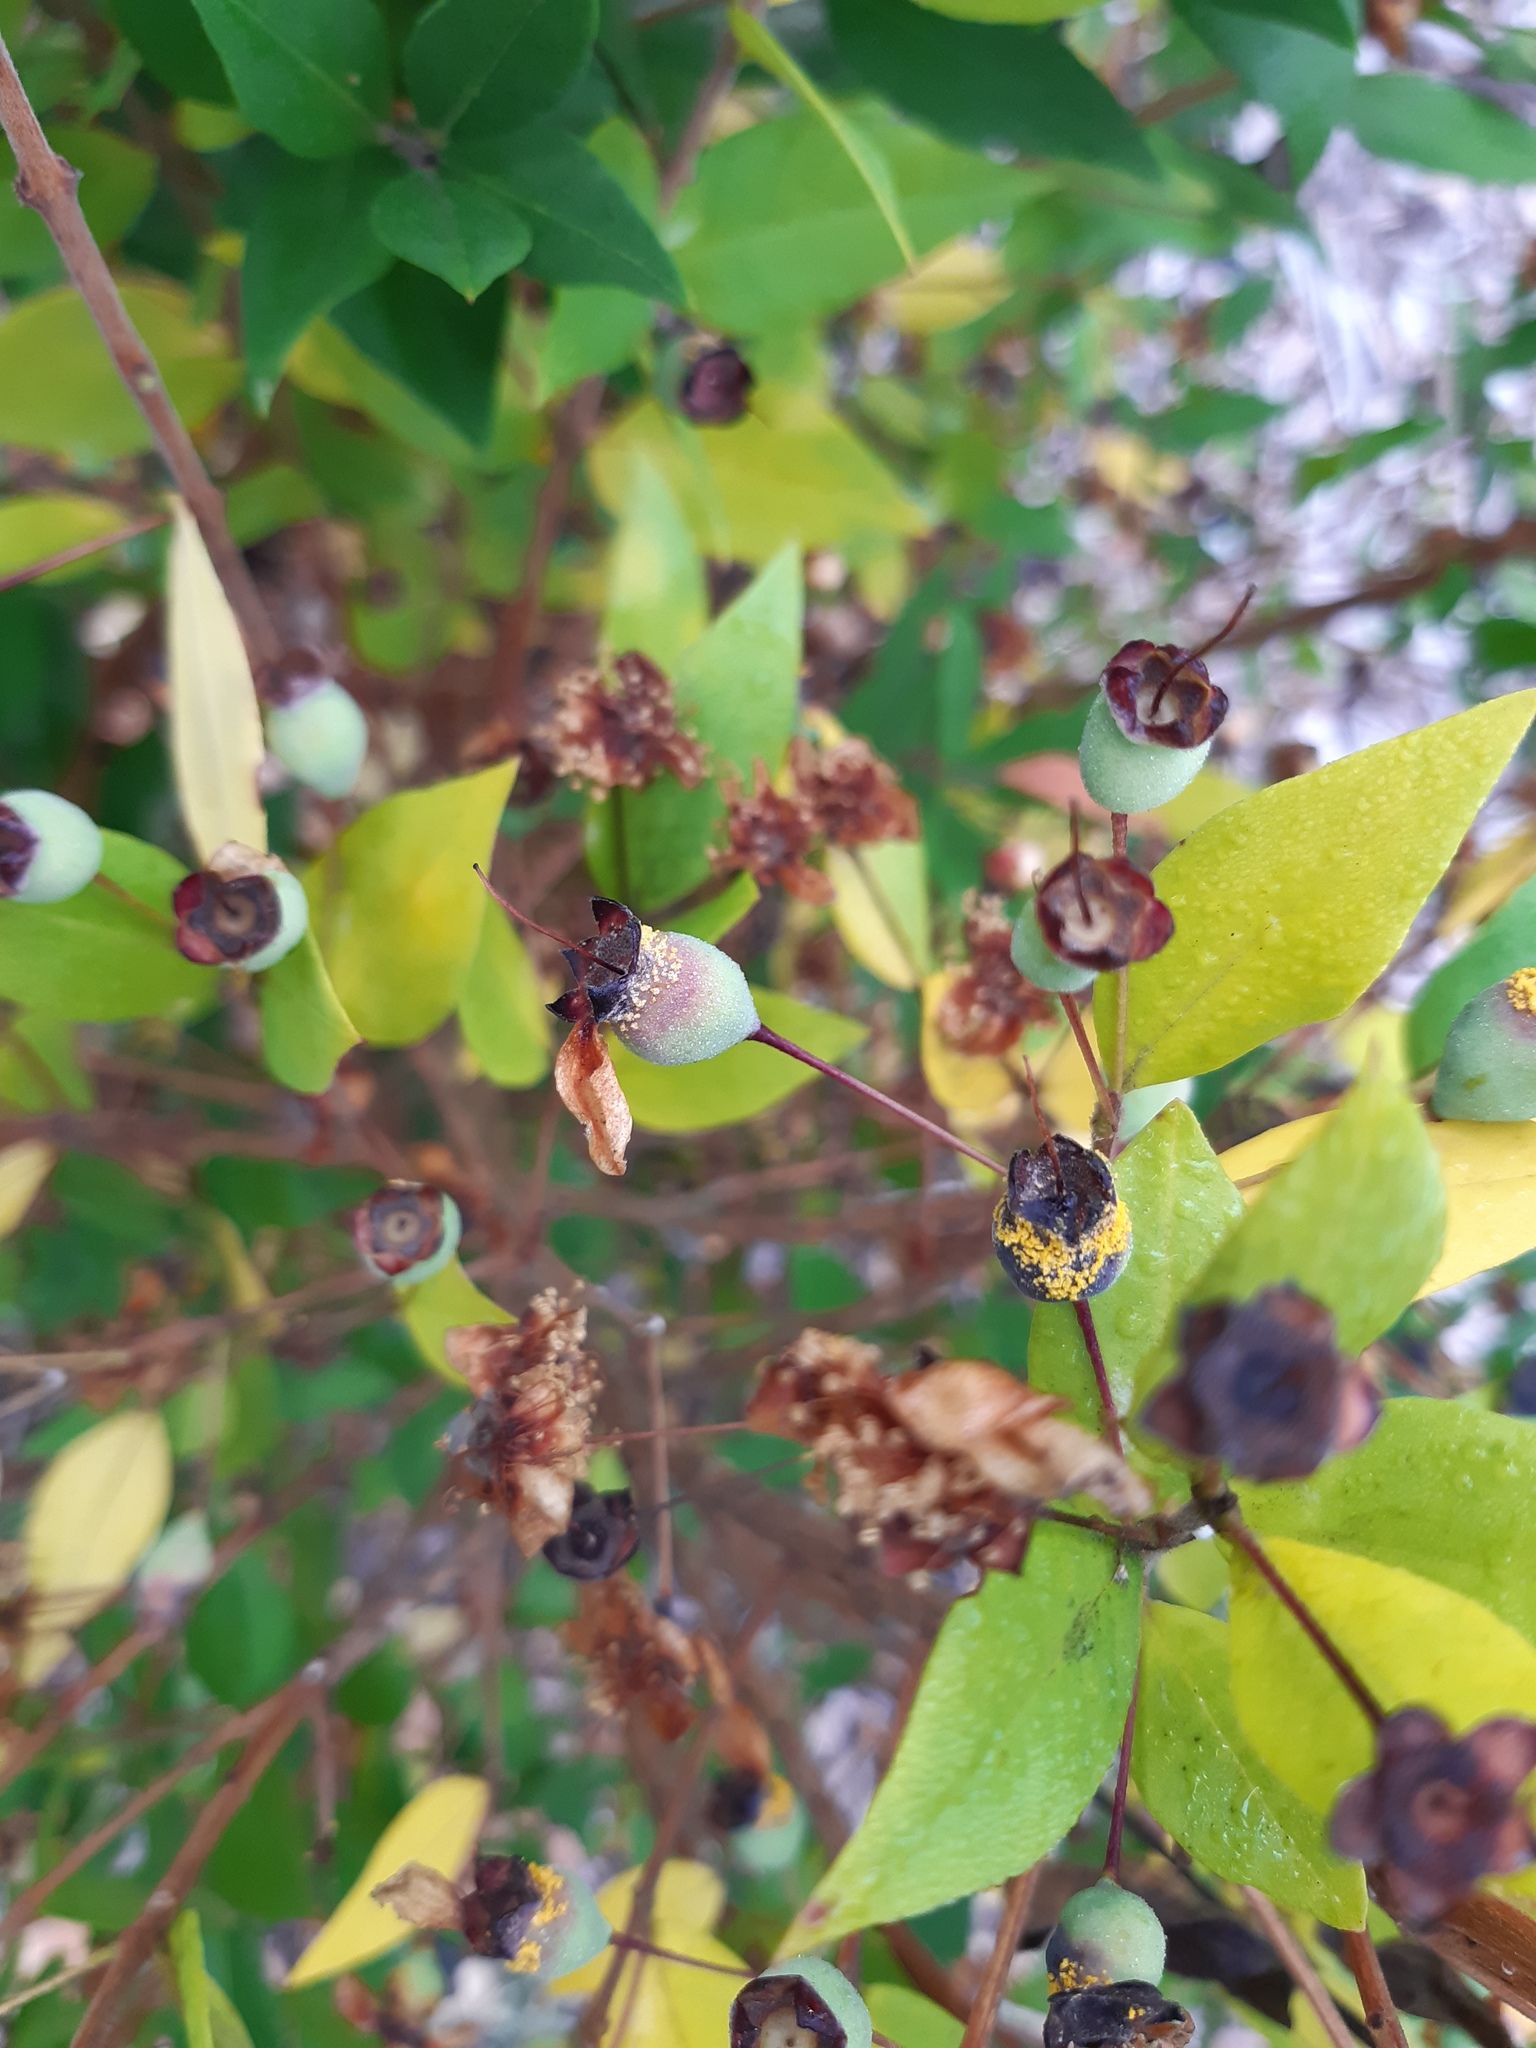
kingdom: Fungi
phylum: Basidiomycota
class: Pucciniomycetes
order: Pucciniales
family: Sphaerophragmiaceae
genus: Austropuccinia
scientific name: Austropuccinia psidii
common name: Myrtle rust
